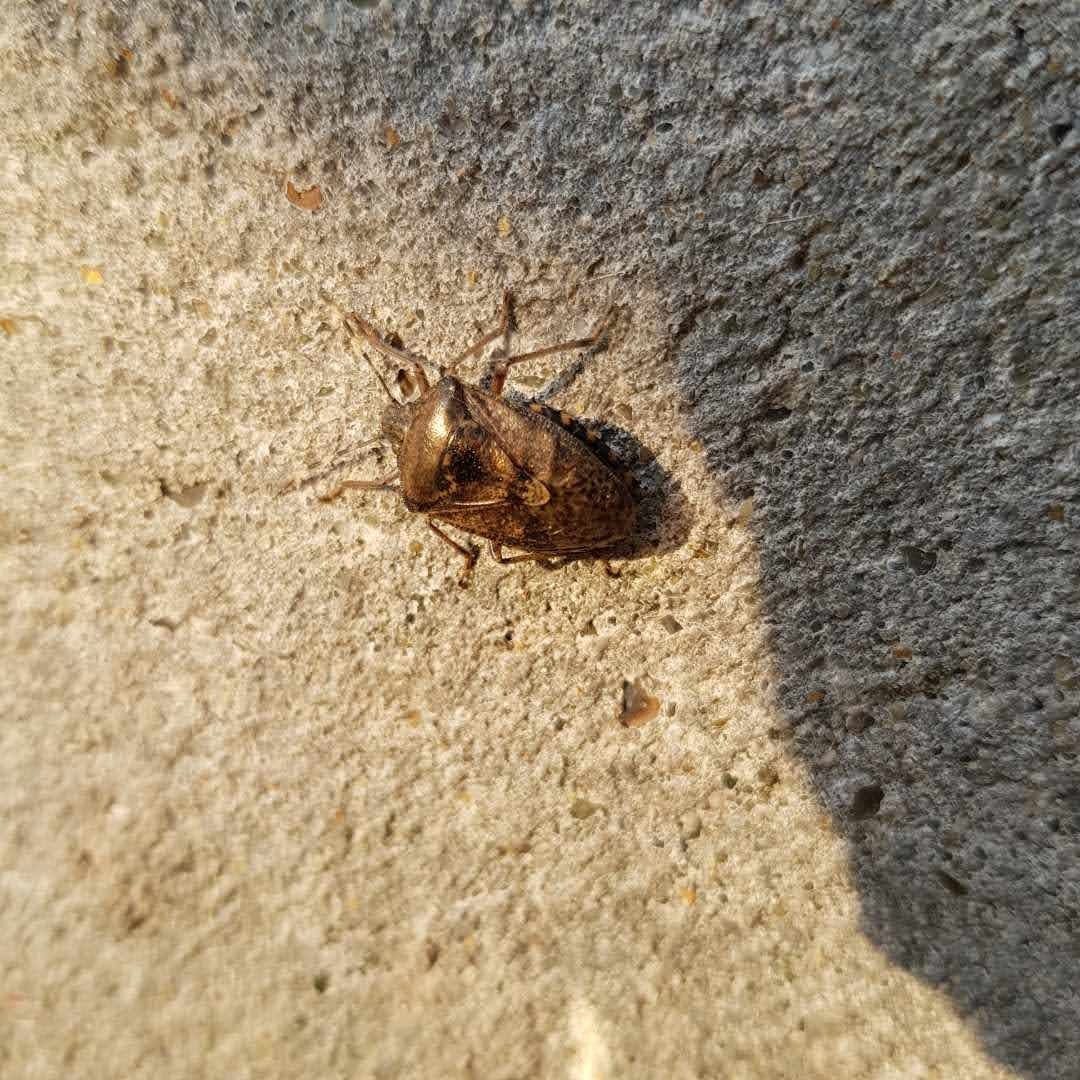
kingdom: Animalia
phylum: Arthropoda
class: Insecta
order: Hemiptera
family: Pentatomidae
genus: Rhaphigaster
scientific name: Rhaphigaster nebulosa
